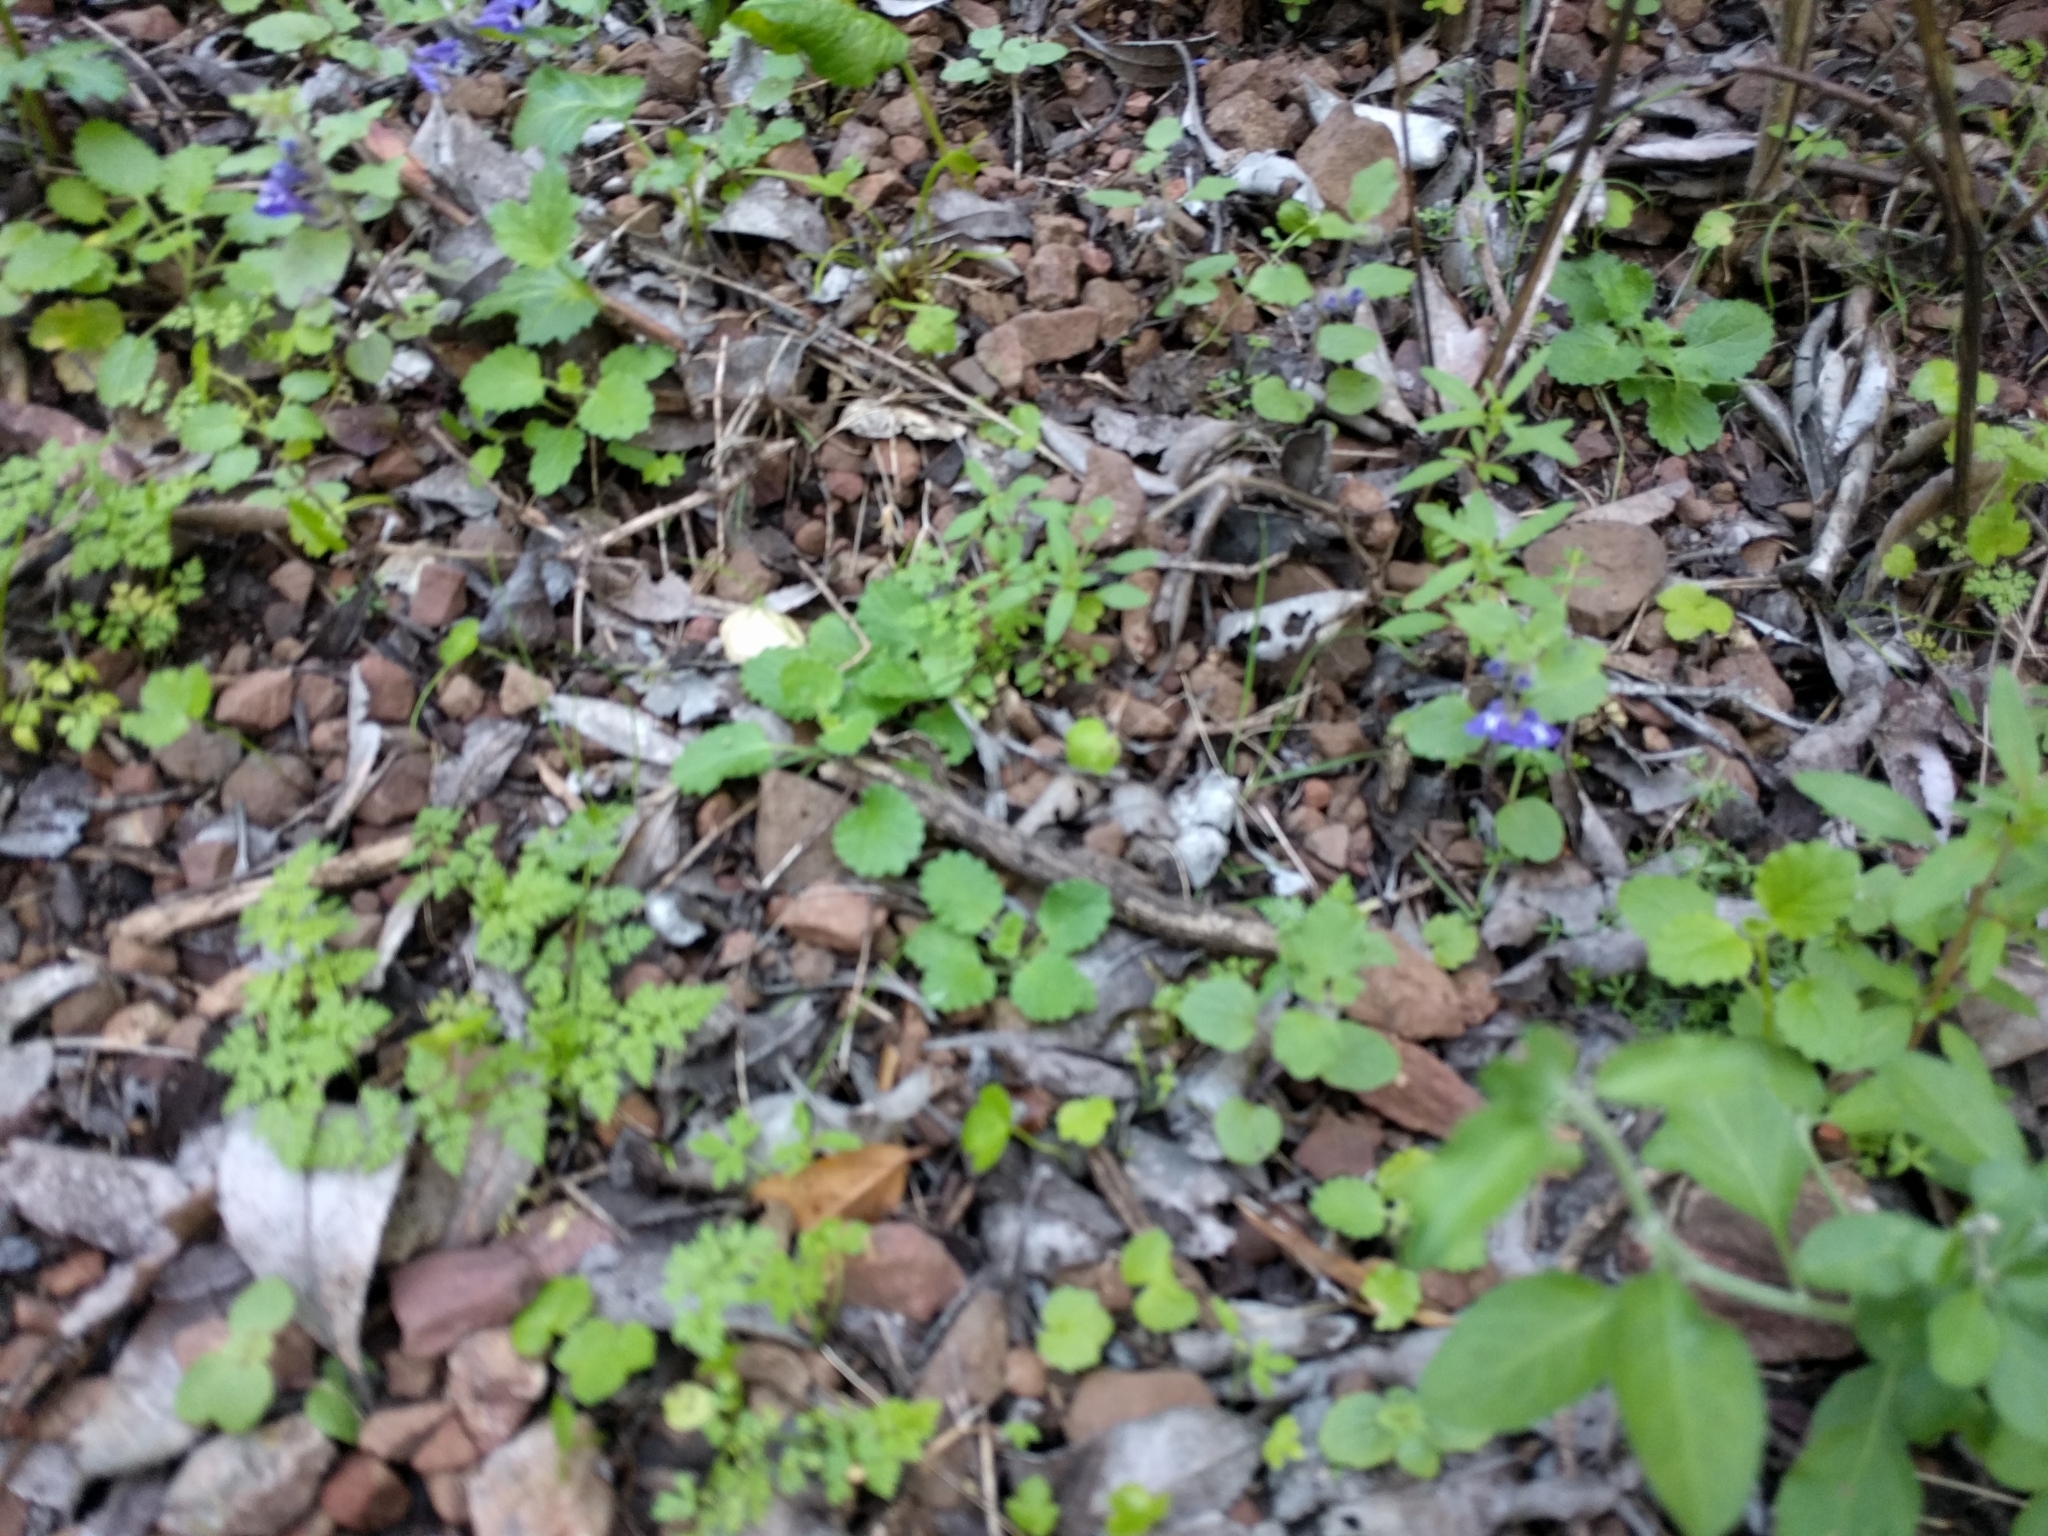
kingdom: Plantae
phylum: Tracheophyta
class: Magnoliopsida
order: Lamiales
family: Lamiaceae
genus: Scutellaria
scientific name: Scutellaria tuberosa
